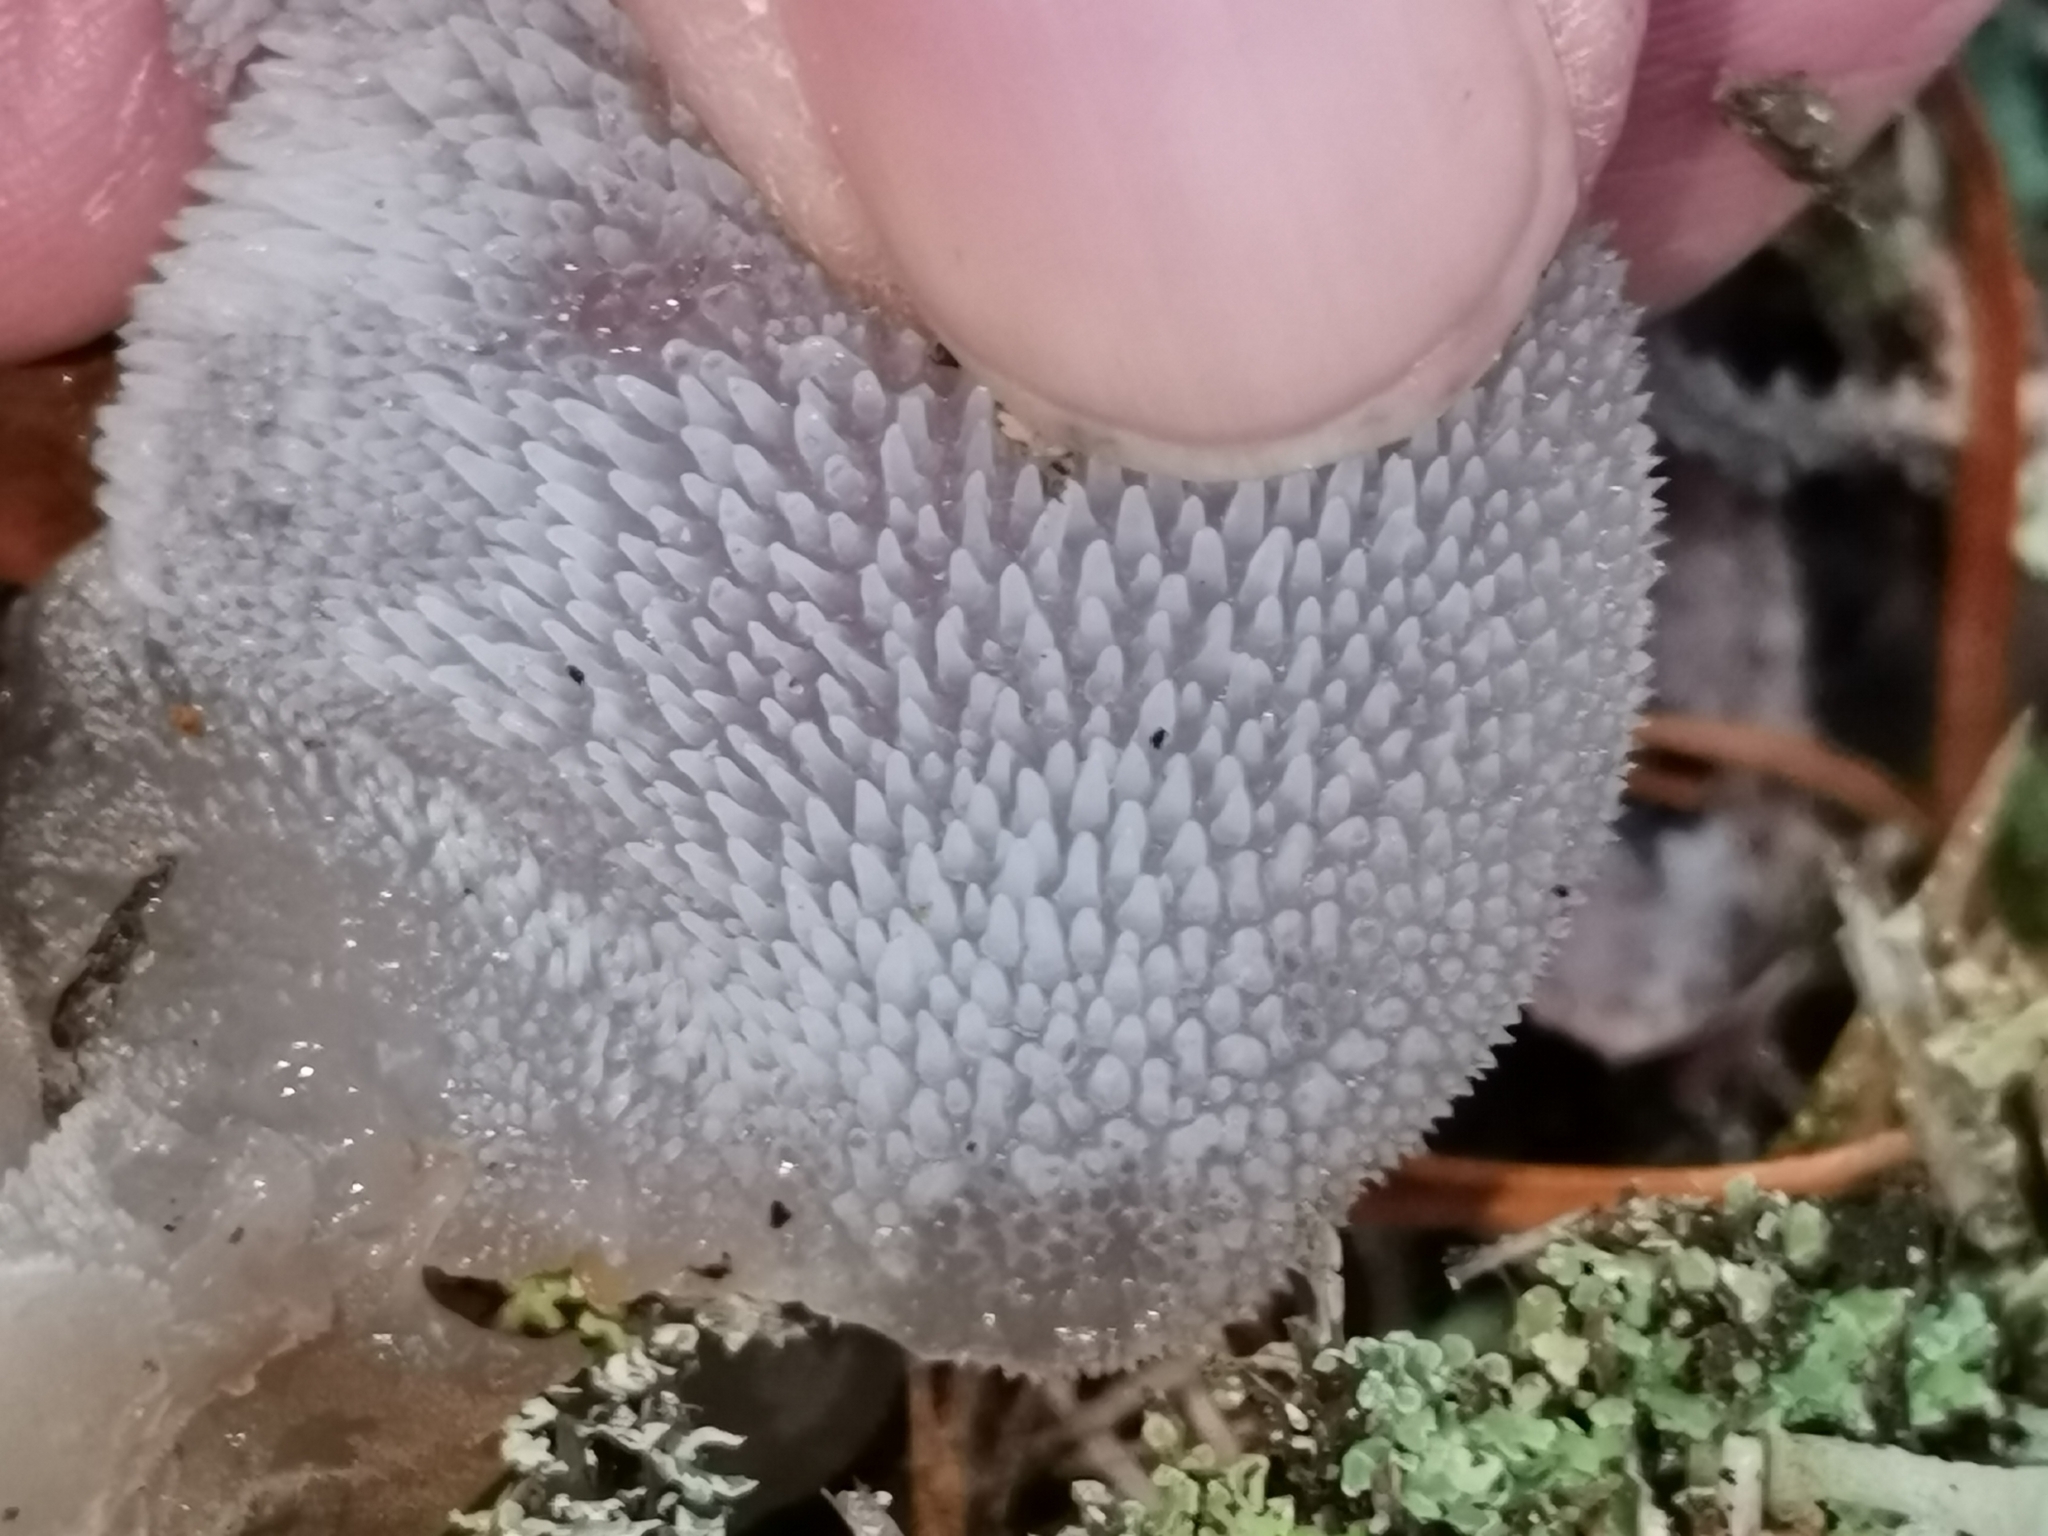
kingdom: Fungi
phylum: Basidiomycota
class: Agaricomycetes
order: Auriculariales
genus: Pseudohydnum
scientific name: Pseudohydnum gelatinosum
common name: Jelly tongue
